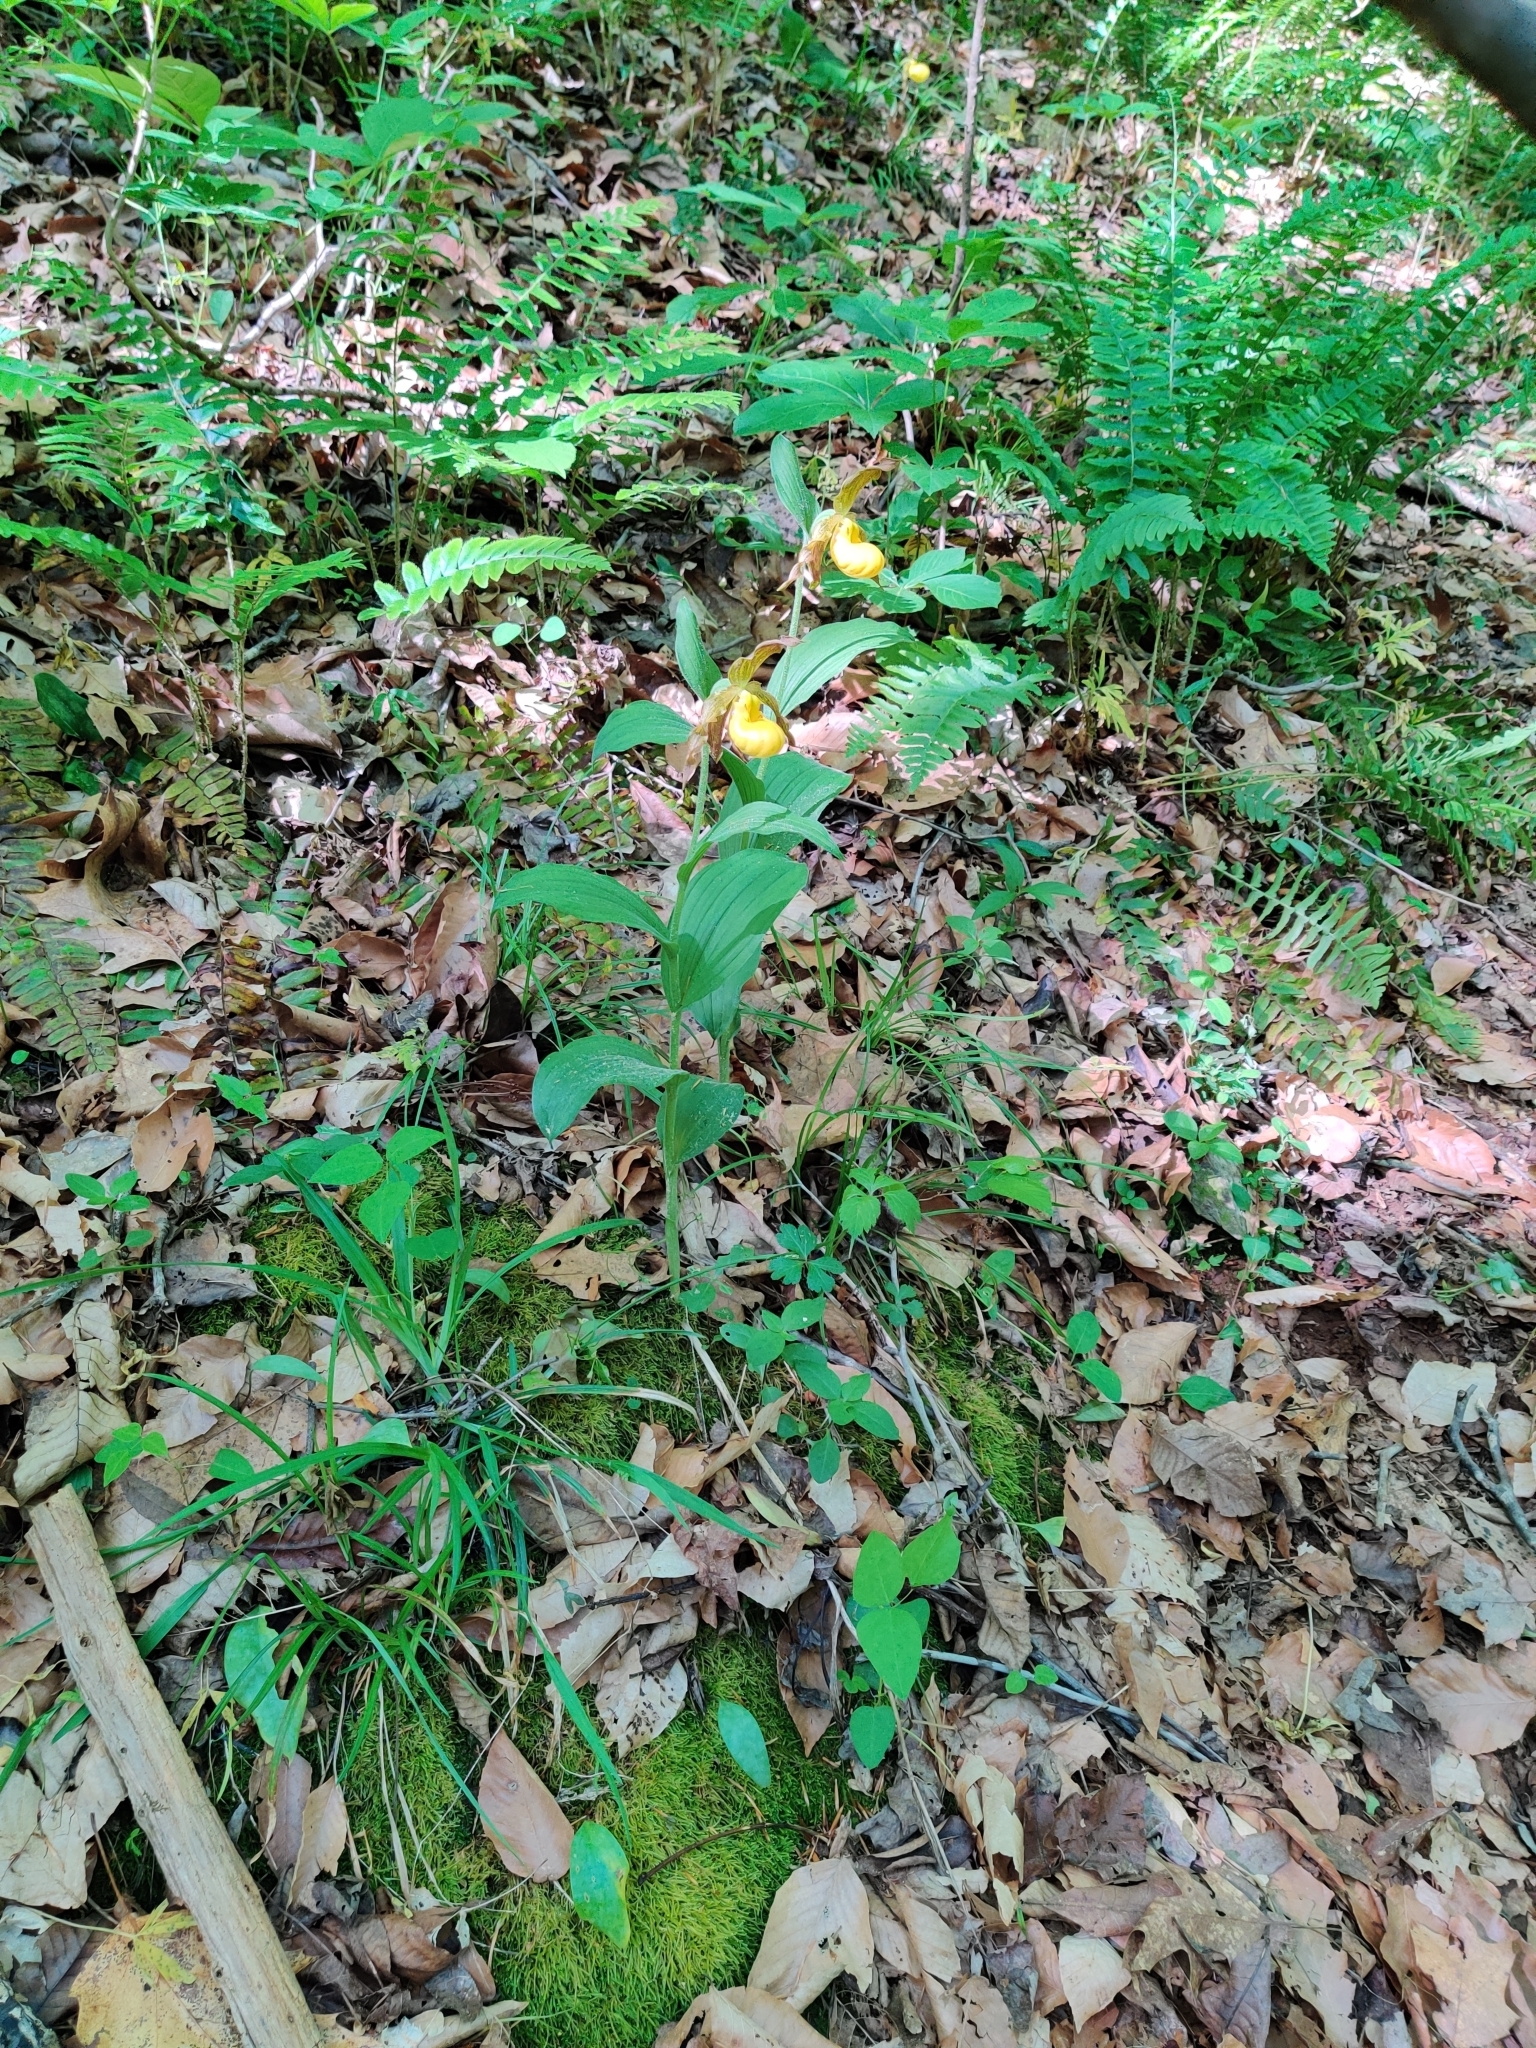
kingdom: Plantae
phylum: Tracheophyta
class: Liliopsida
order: Asparagales
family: Orchidaceae
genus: Cypripedium
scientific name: Cypripedium parviflorum
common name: American yellow lady's-slipper
